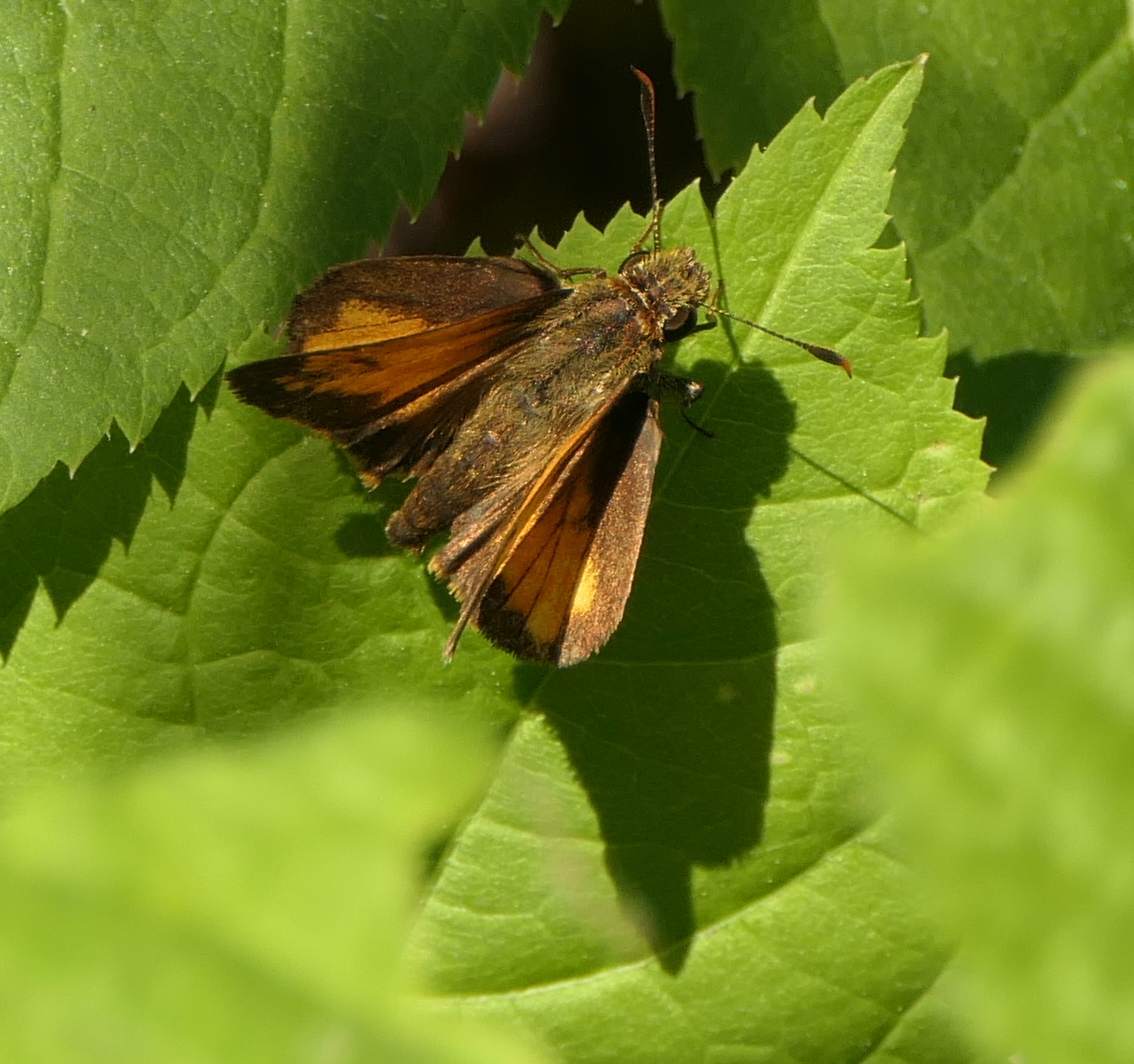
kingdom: Animalia
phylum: Arthropoda
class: Insecta
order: Lepidoptera
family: Hesperiidae
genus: Lon
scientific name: Lon hobomok
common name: Hobomok skipper
